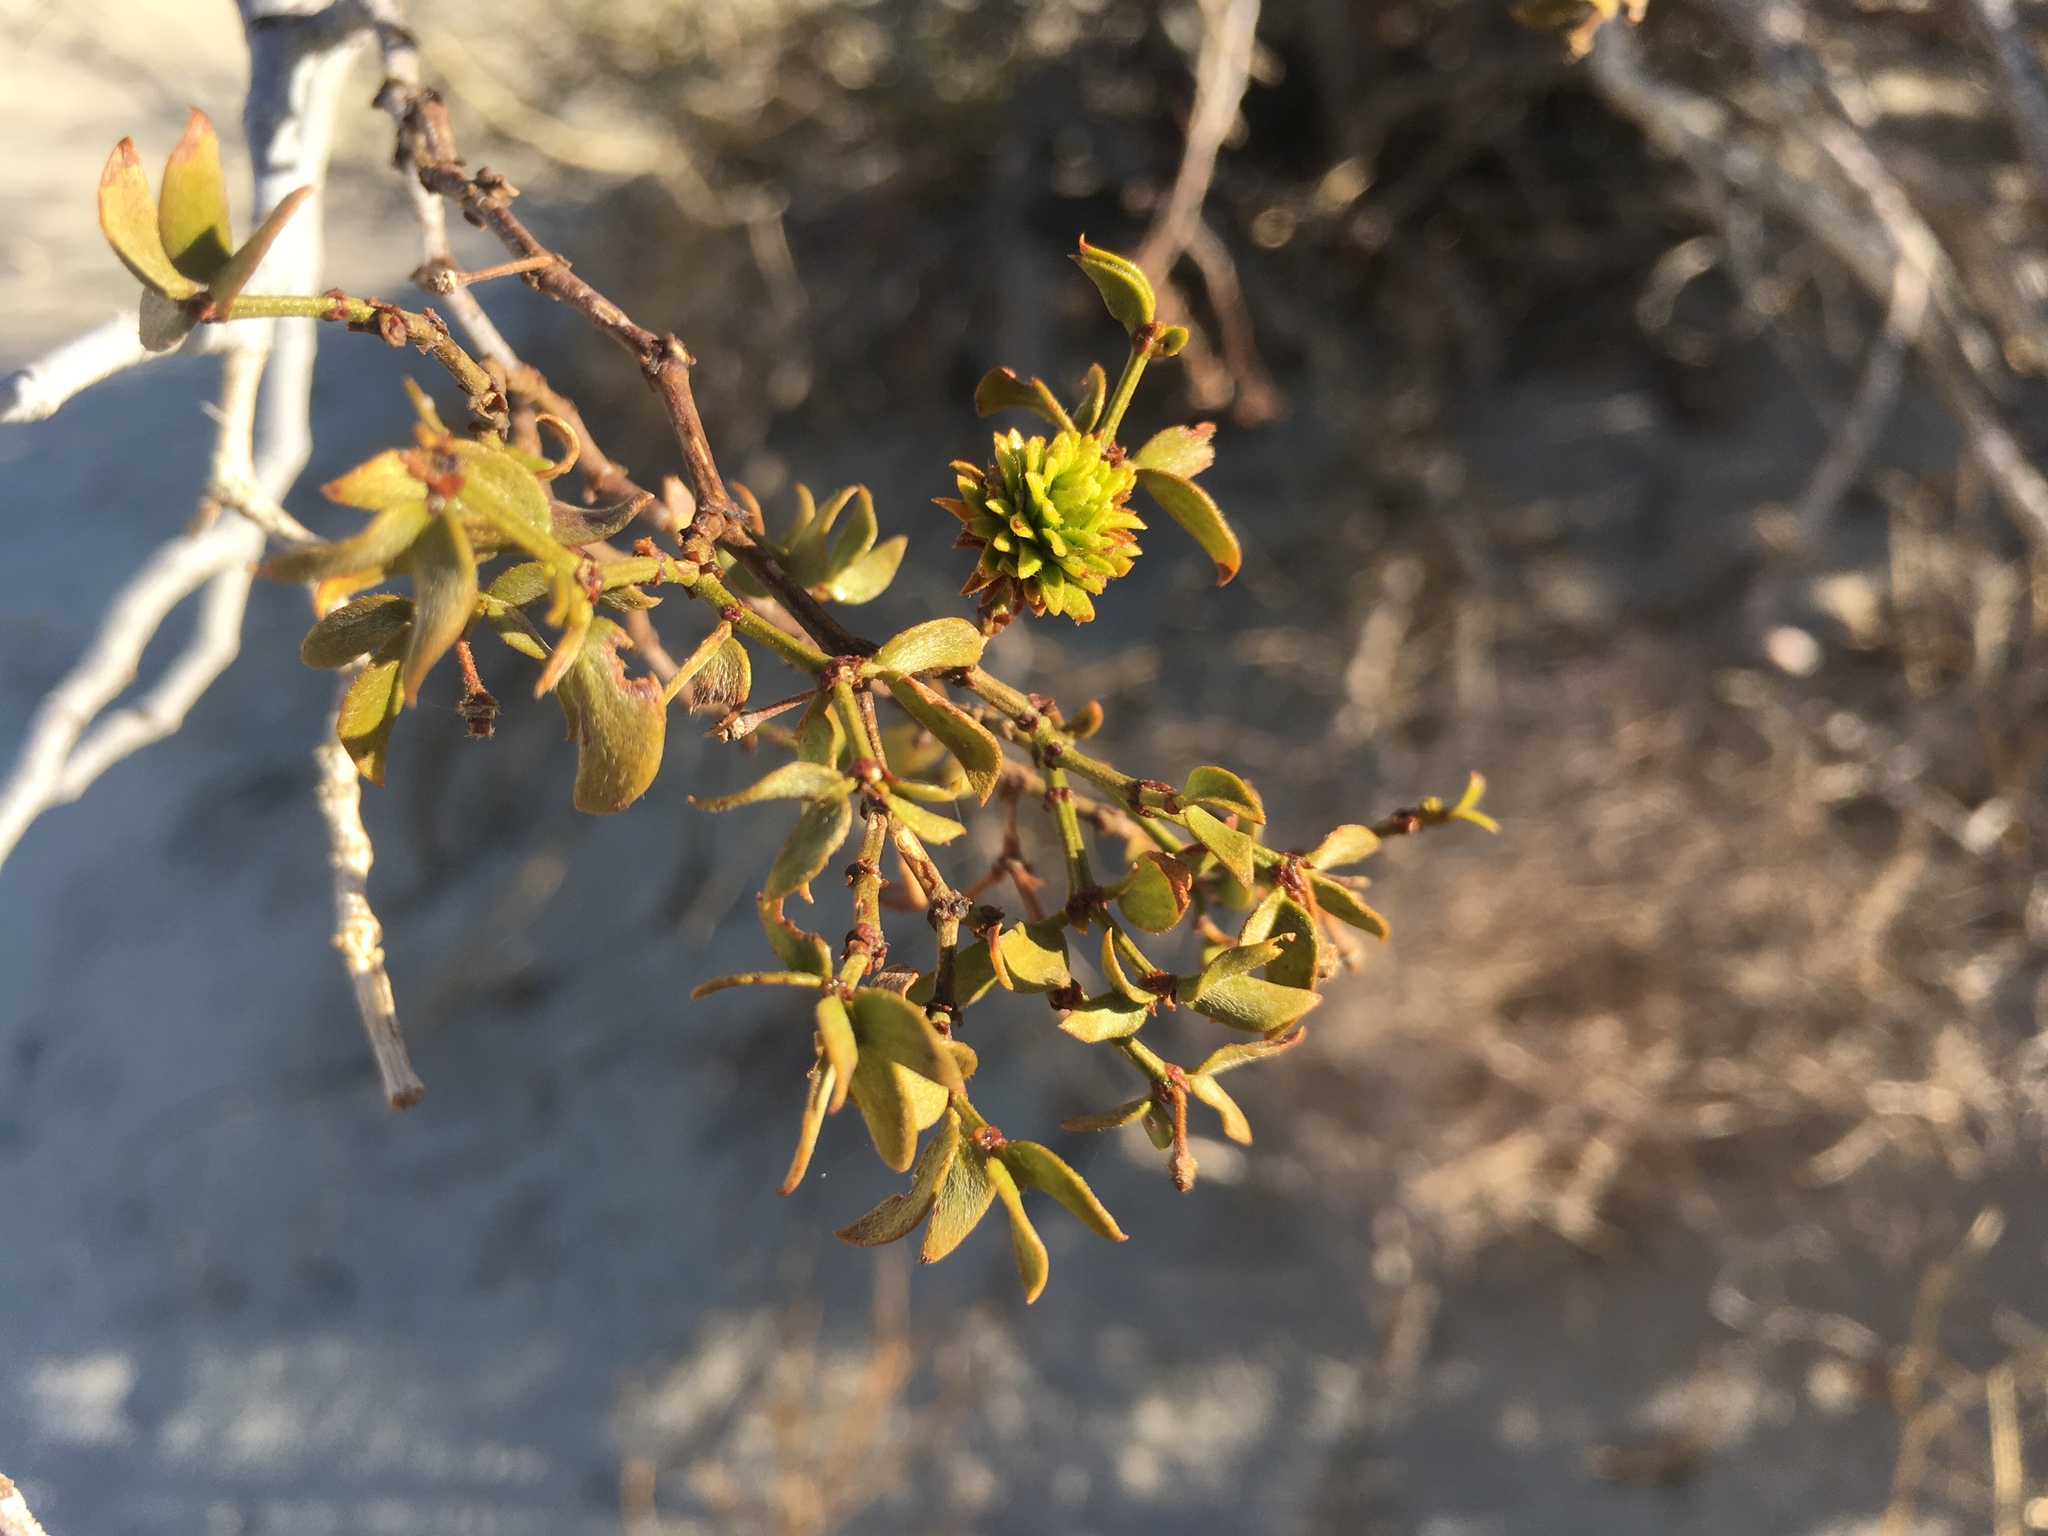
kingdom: Animalia
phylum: Arthropoda
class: Insecta
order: Diptera
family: Cecidomyiidae
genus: Asphondylia
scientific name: Asphondylia auripila
